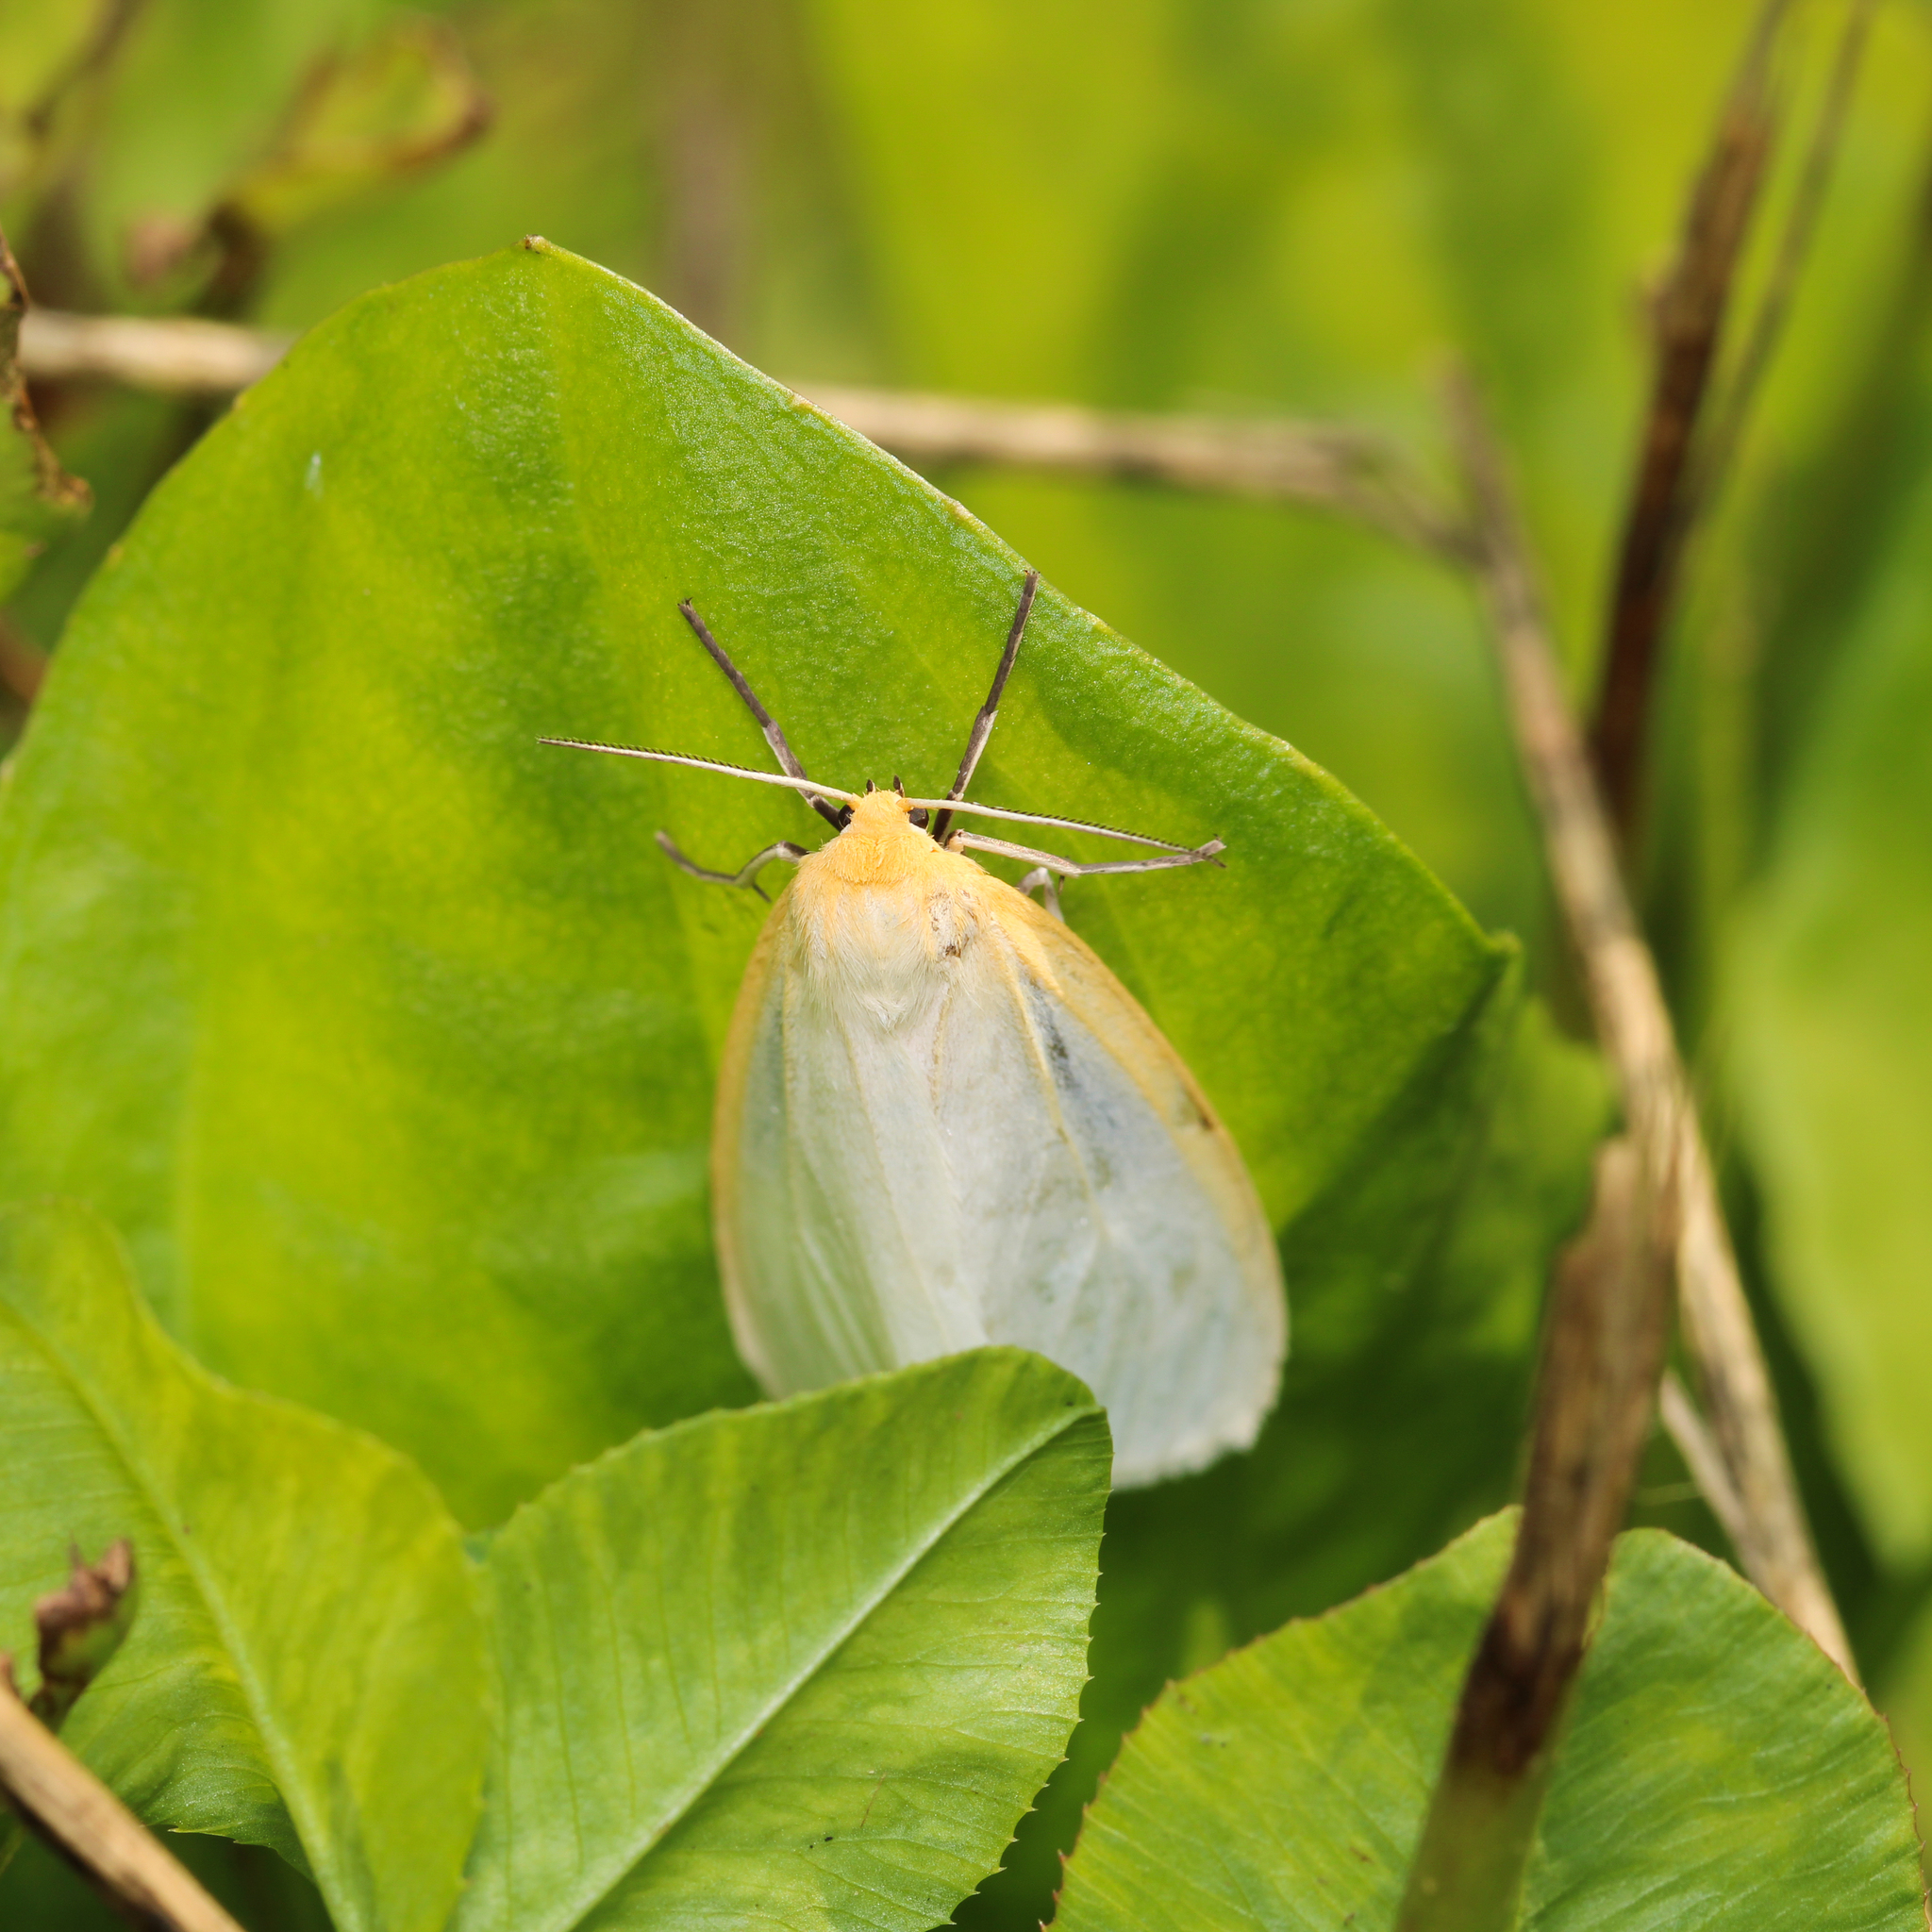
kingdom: Animalia
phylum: Arthropoda
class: Insecta
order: Lepidoptera
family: Erebidae
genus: Cycnia
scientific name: Cycnia tenera
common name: Delicate cycnia moth
